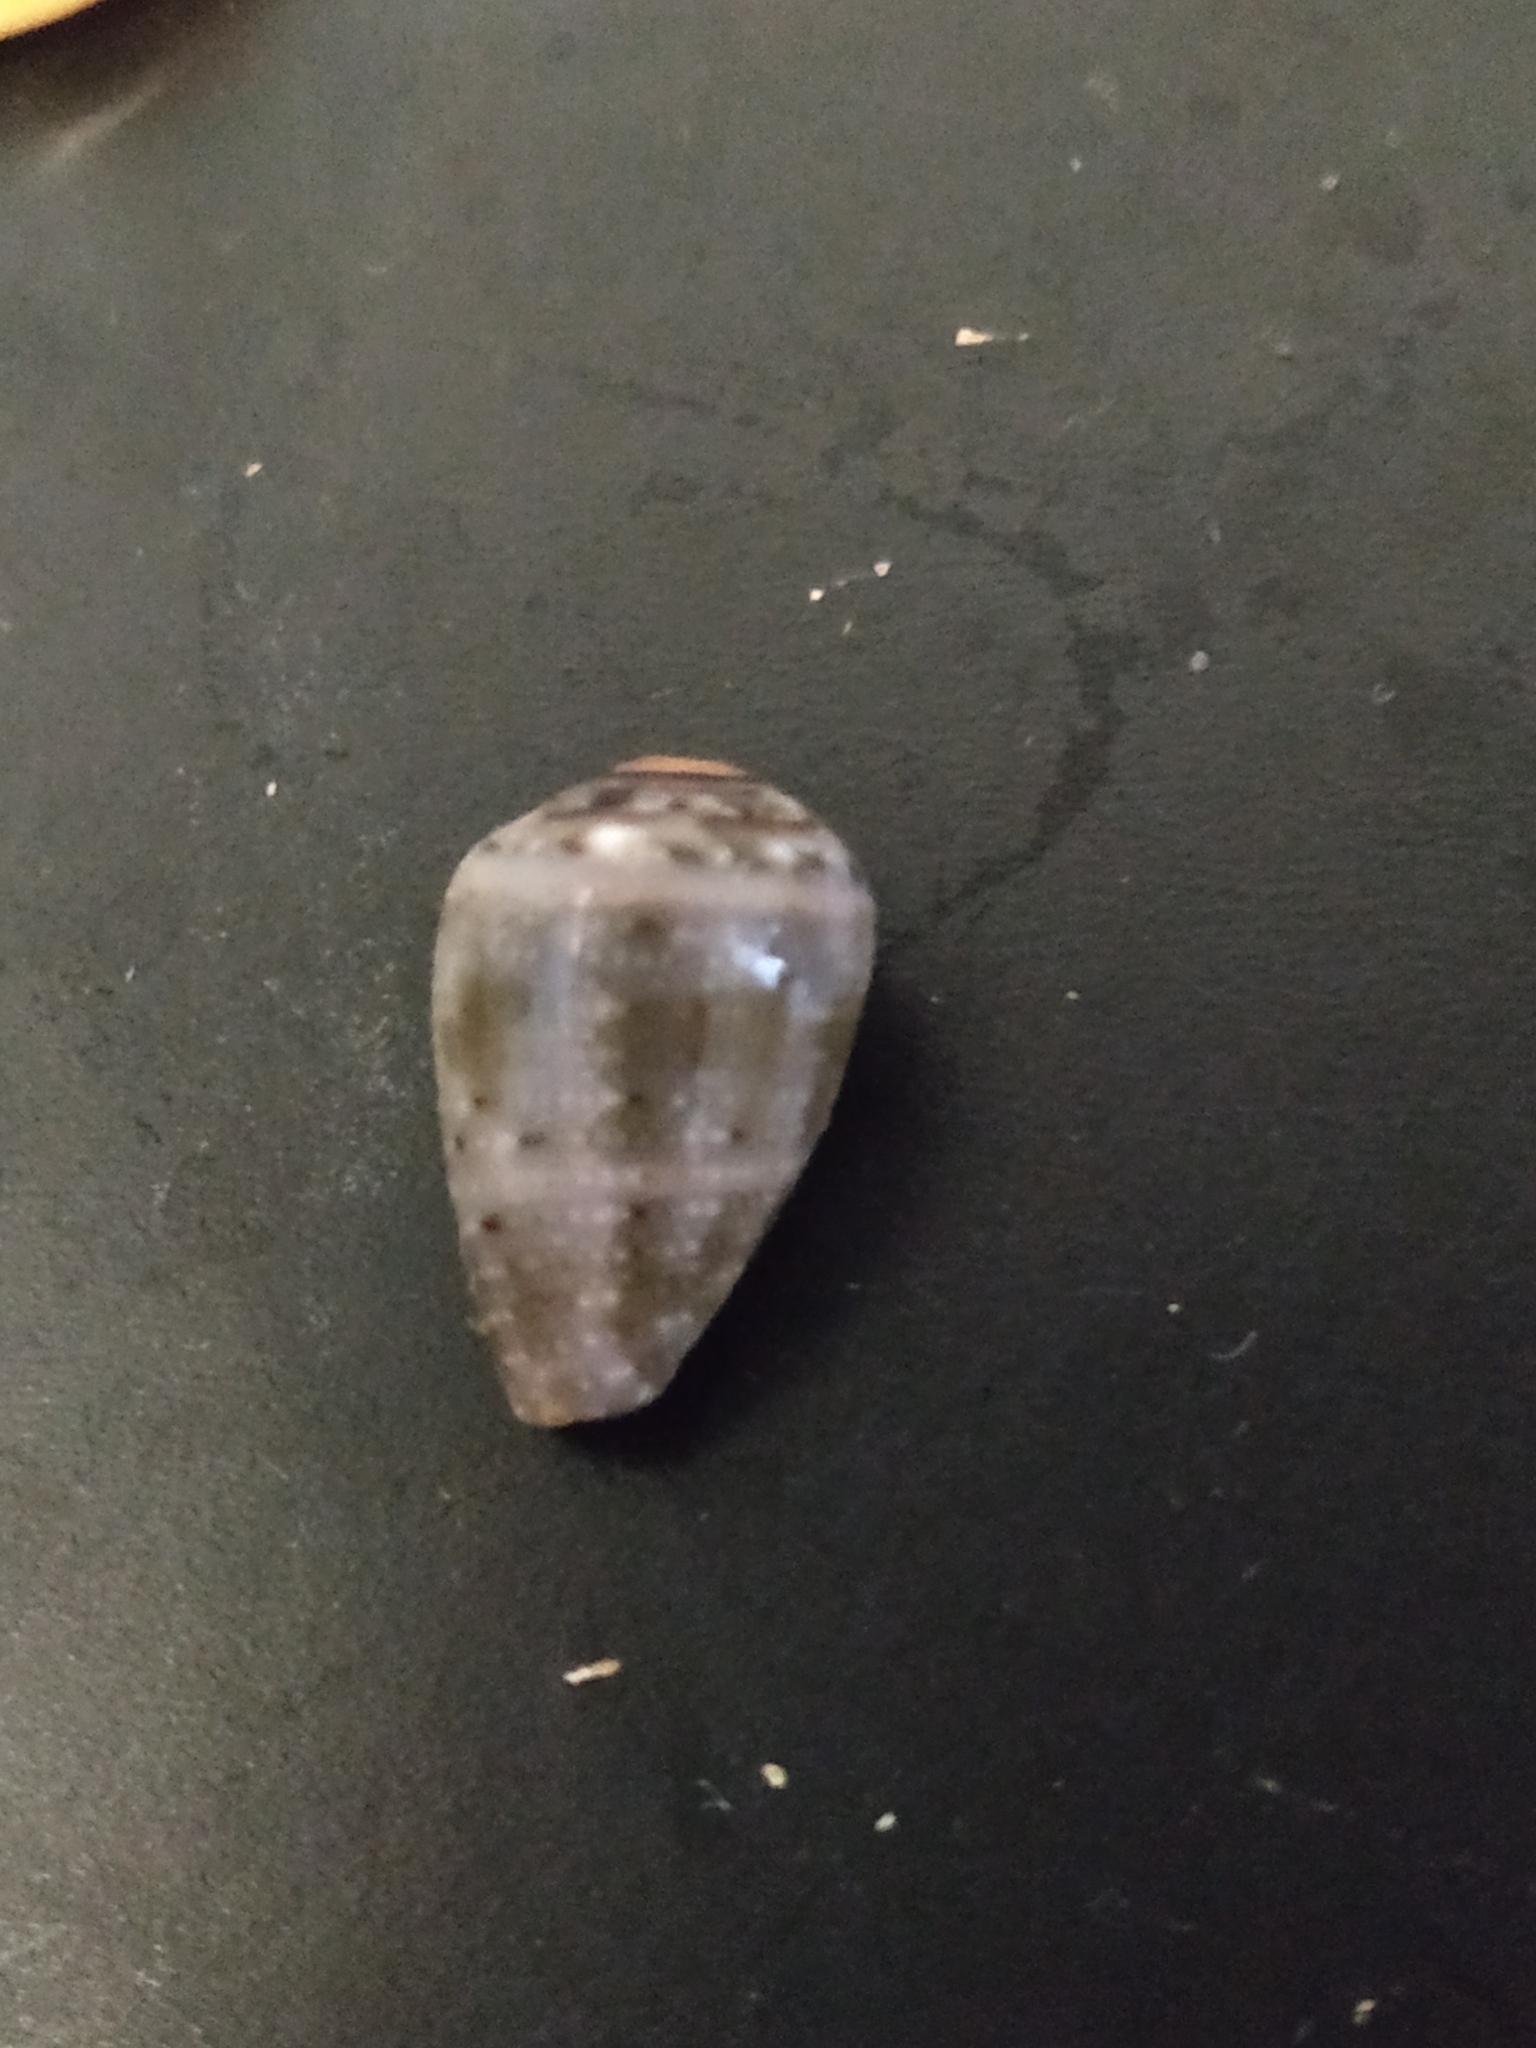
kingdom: Animalia
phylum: Mollusca
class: Gastropoda
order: Neogastropoda
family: Conidae
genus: Conus
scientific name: Conus coronatus
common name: Coronated cone
